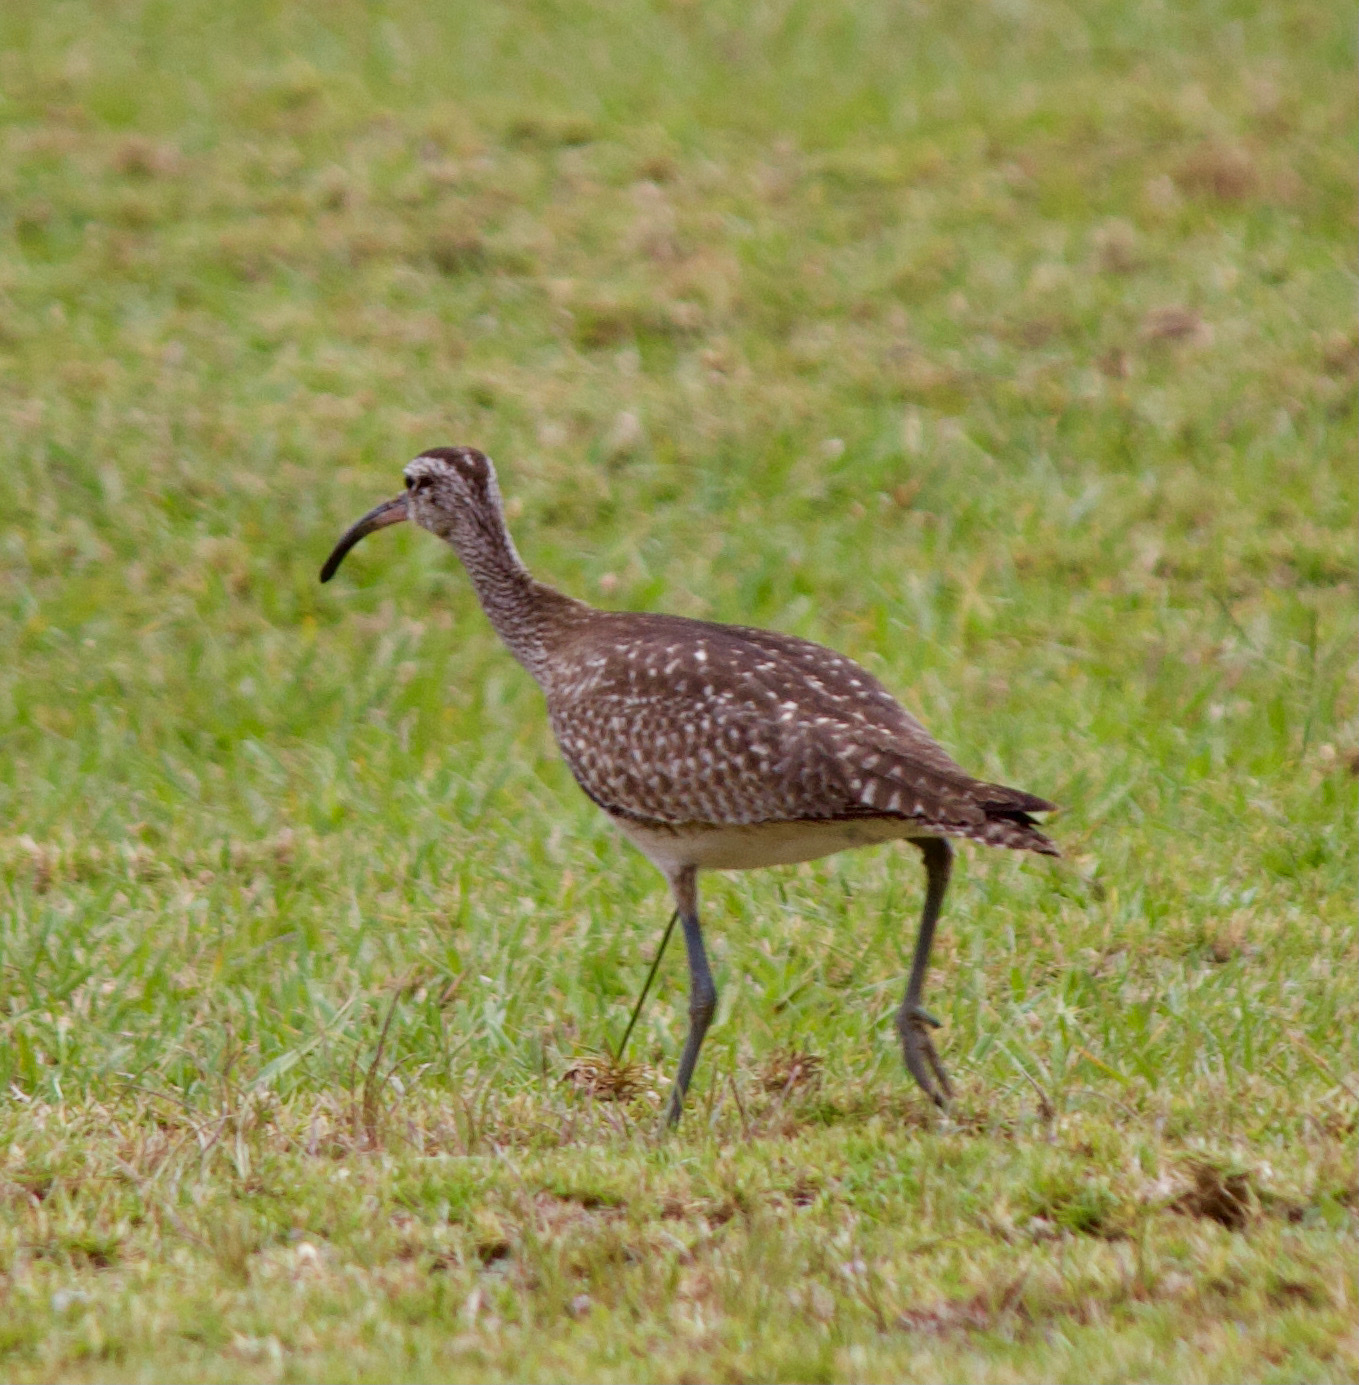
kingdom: Animalia
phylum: Chordata
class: Aves
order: Charadriiformes
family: Scolopacidae
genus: Numenius
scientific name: Numenius phaeopus
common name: Whimbrel
